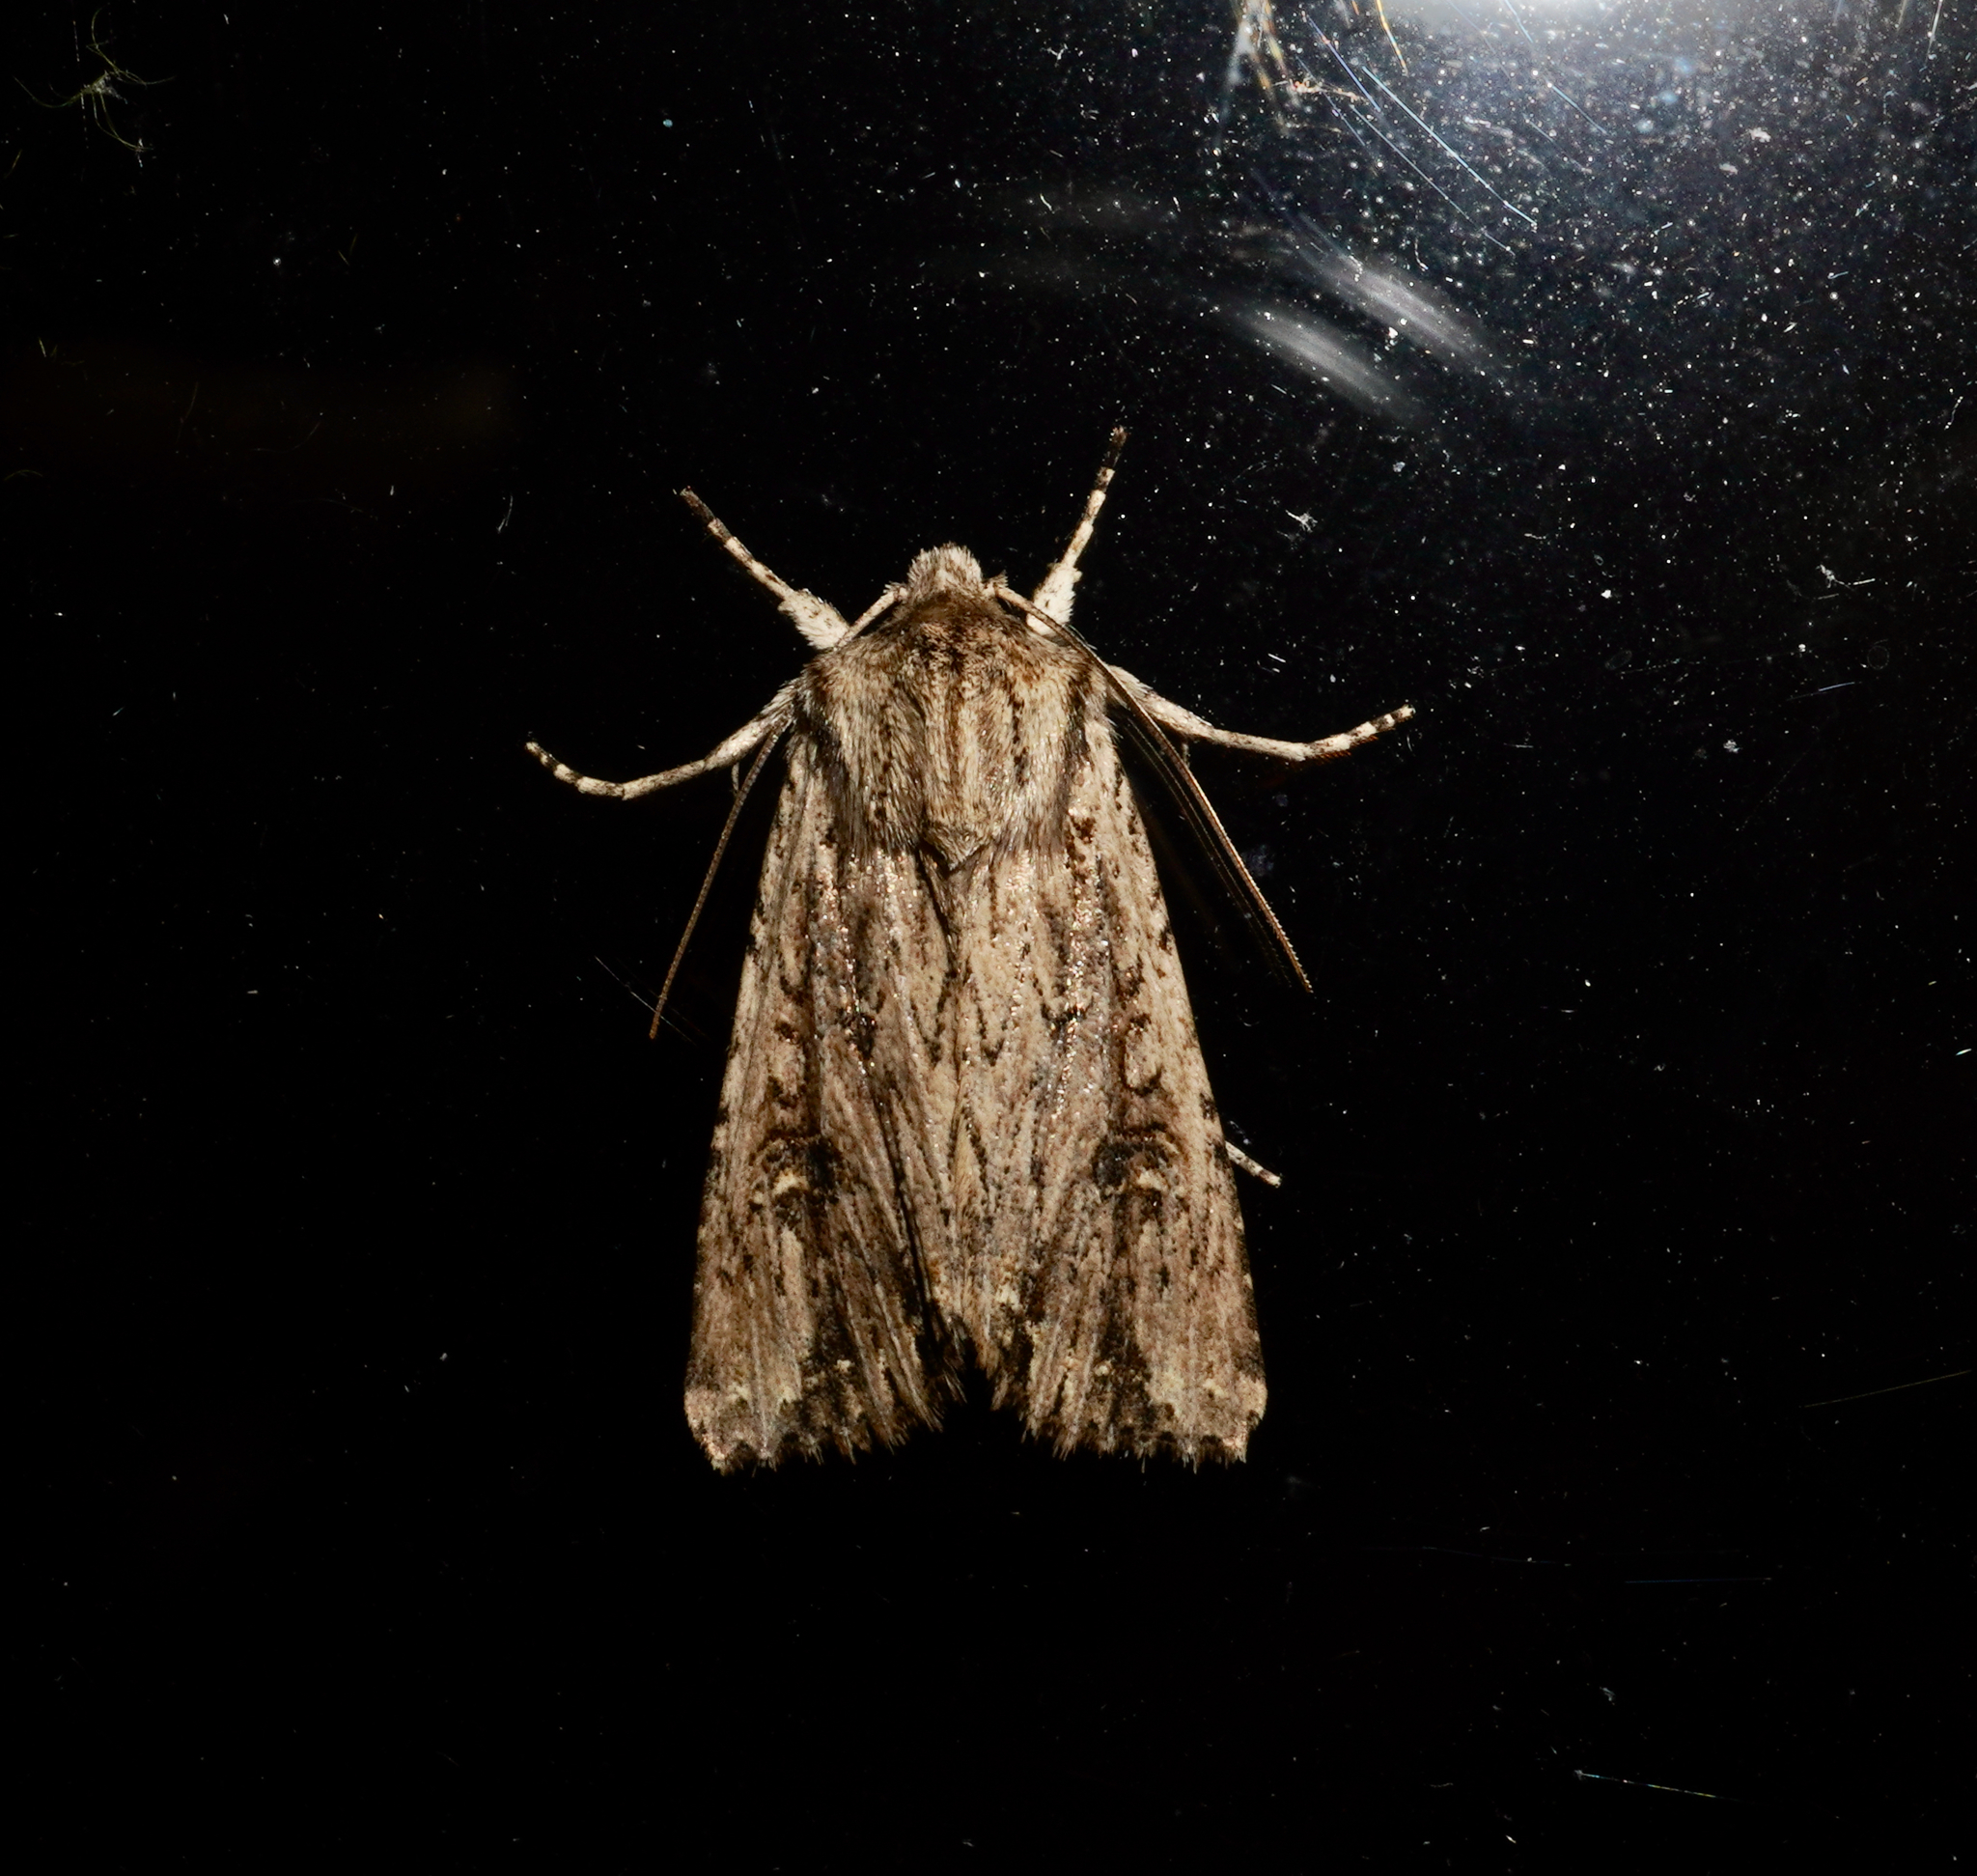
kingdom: Animalia
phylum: Arthropoda
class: Insecta
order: Lepidoptera
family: Noctuidae
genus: Ichneutica
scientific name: Ichneutica lignana
